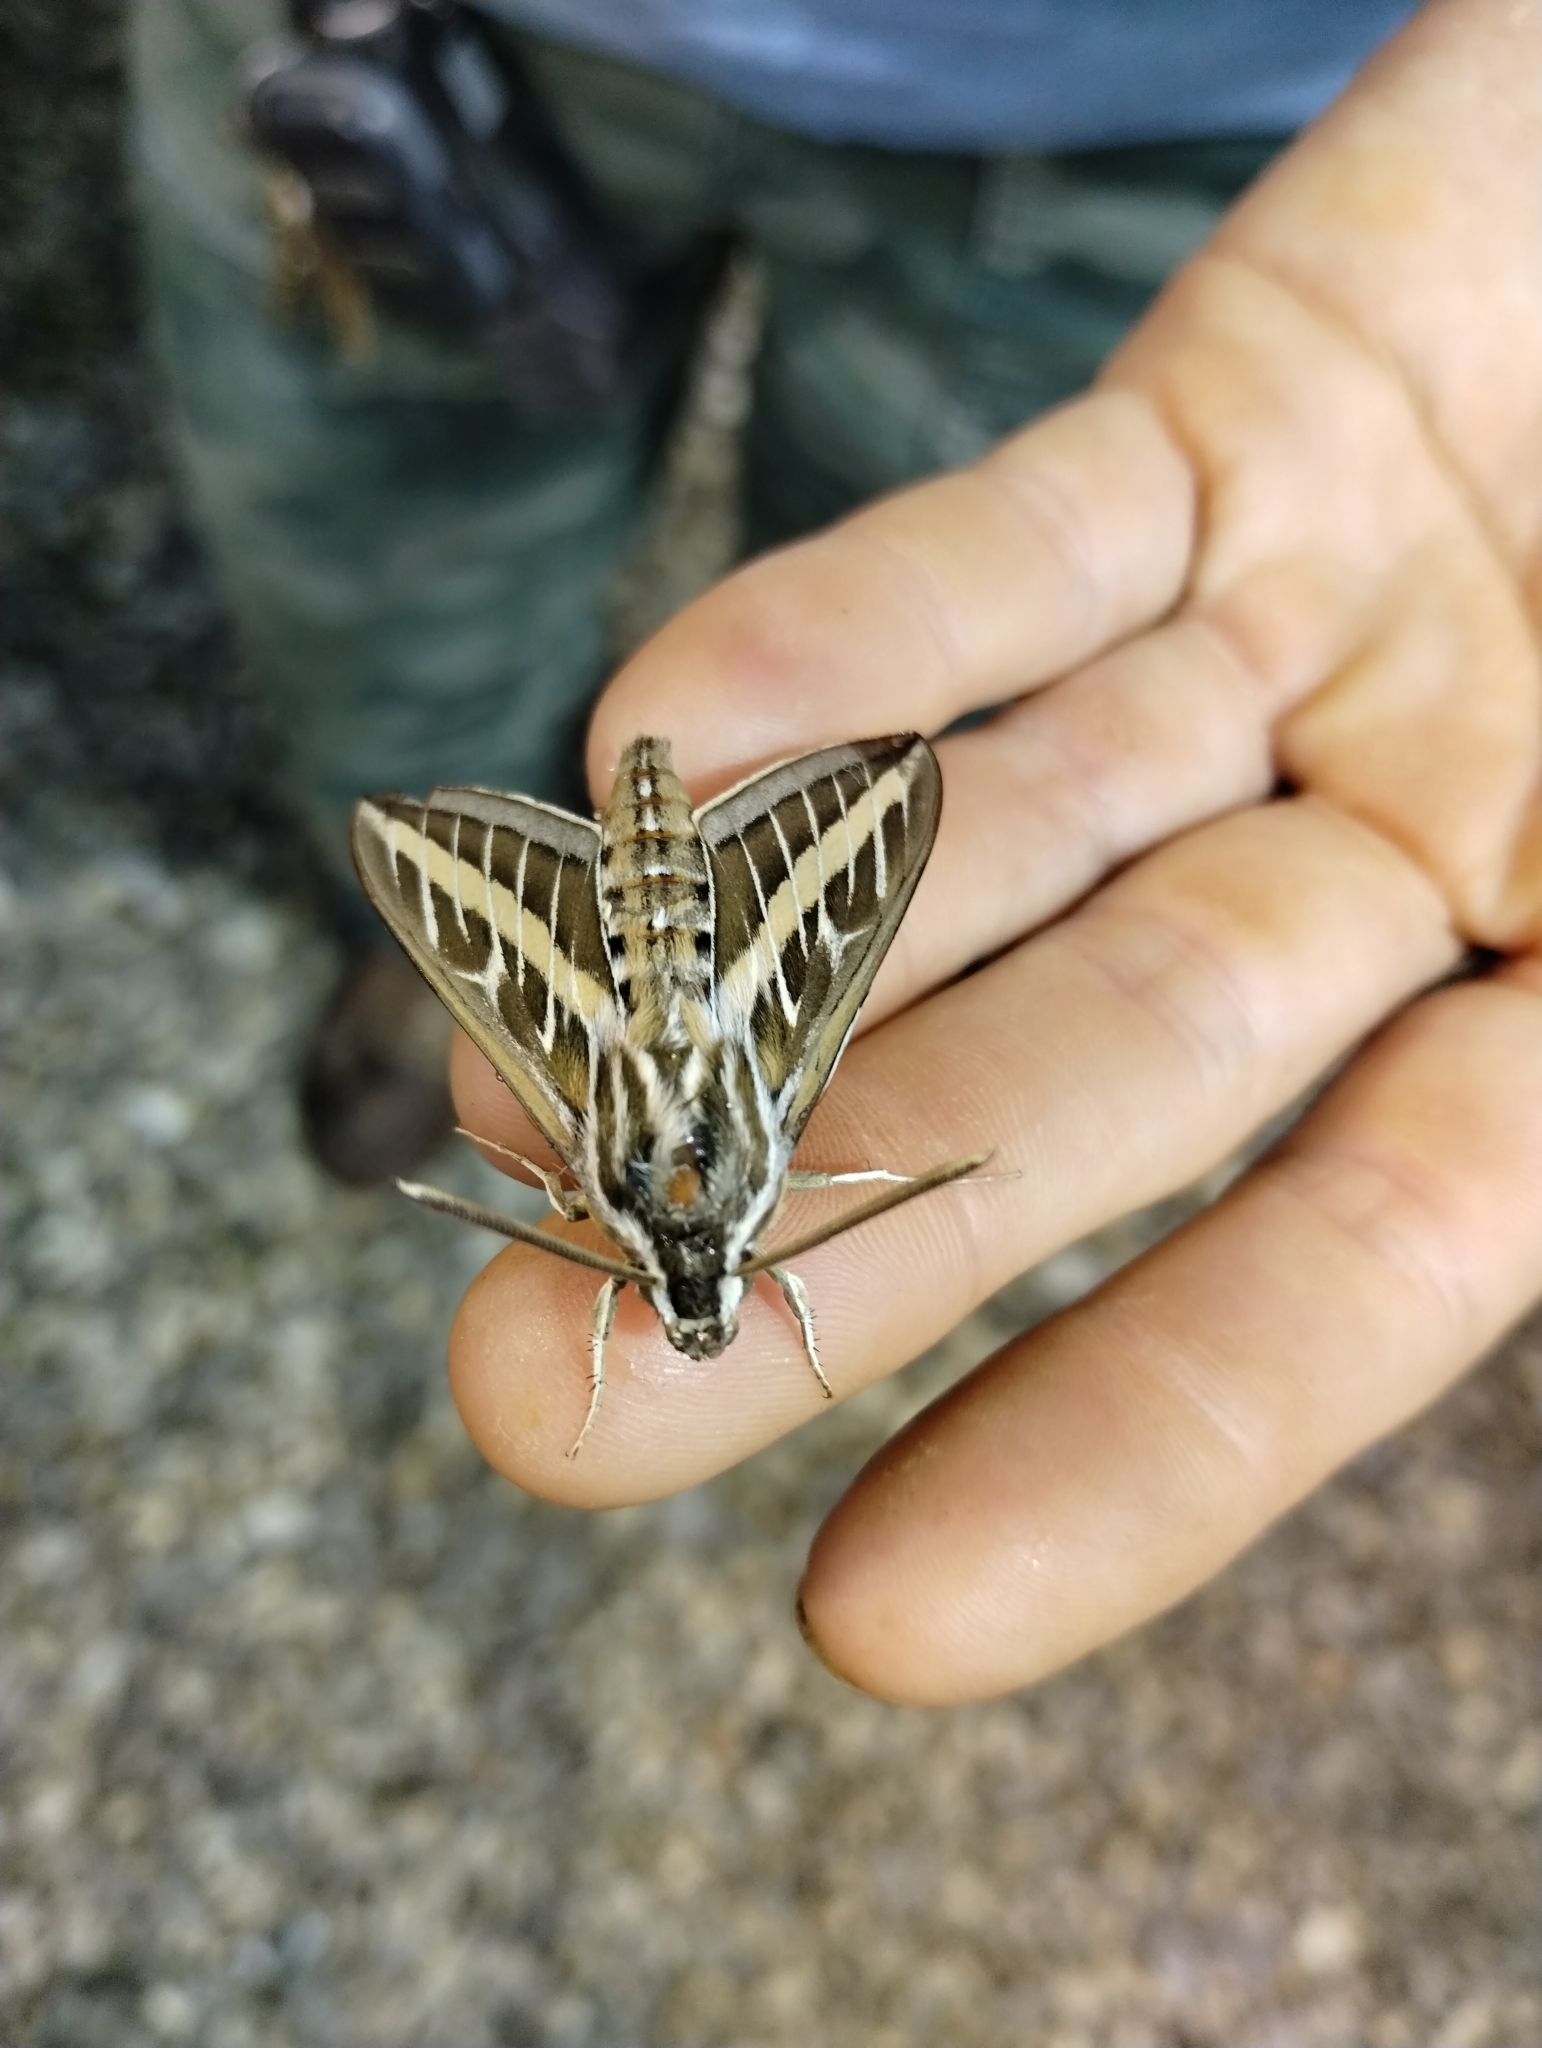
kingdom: Animalia
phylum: Arthropoda
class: Insecta
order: Lepidoptera
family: Sphingidae
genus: Hyles
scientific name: Hyles lineata
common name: White-lined sphinx
